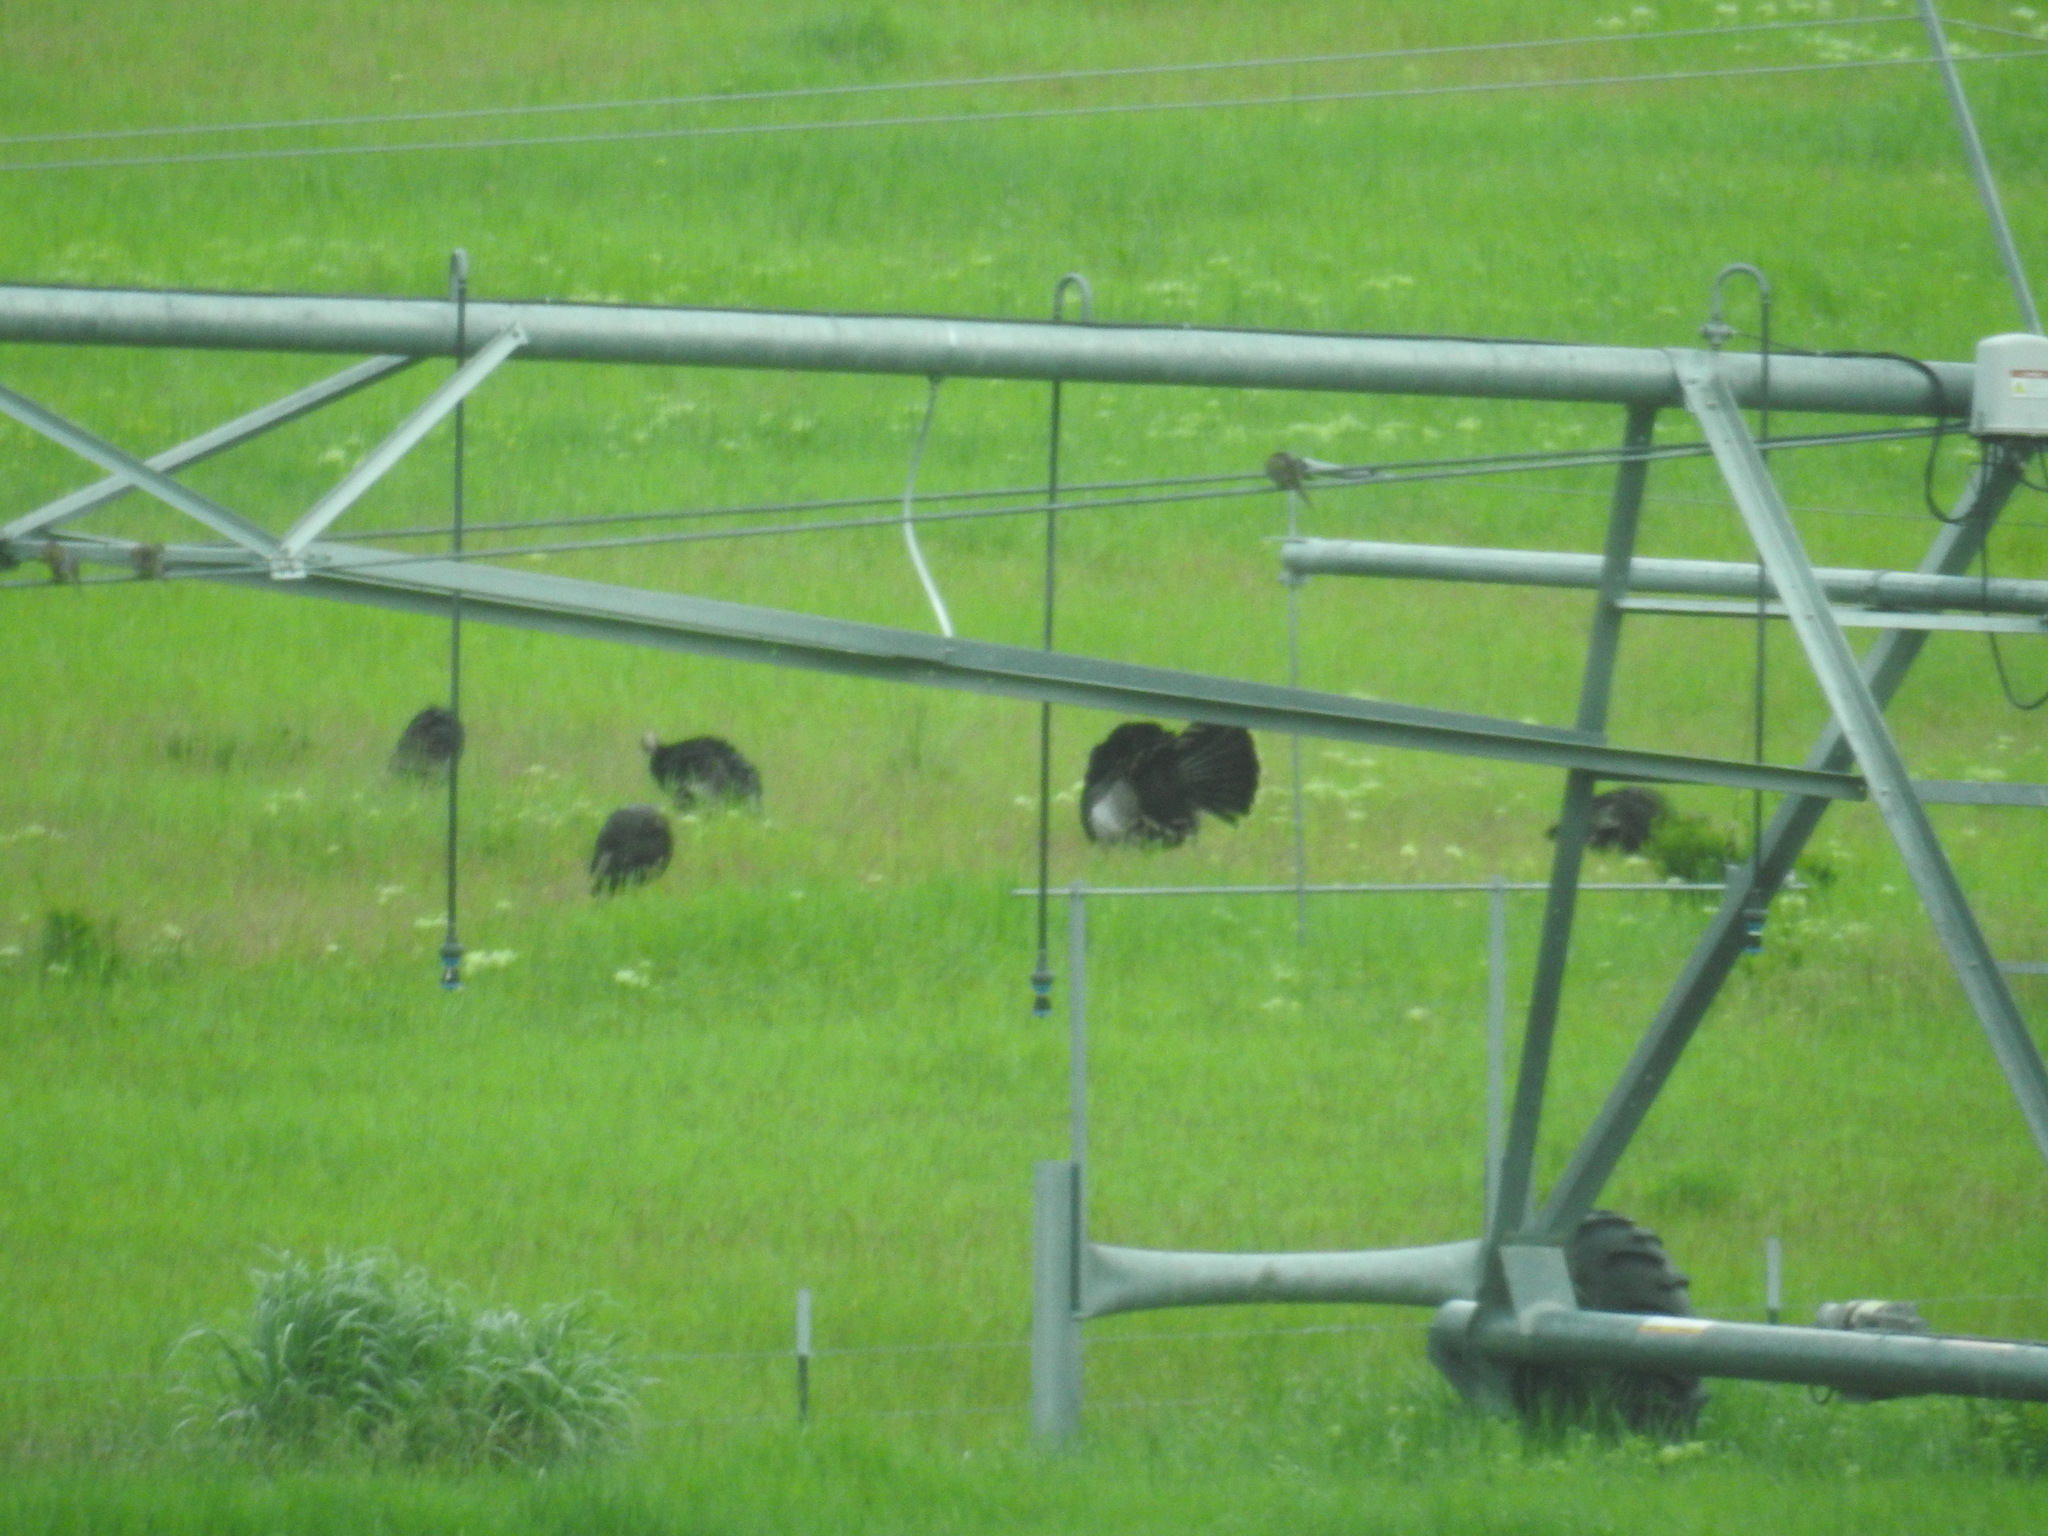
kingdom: Animalia
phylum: Chordata
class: Aves
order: Galliformes
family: Phasianidae
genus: Meleagris
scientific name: Meleagris gallopavo
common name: Wild turkey
